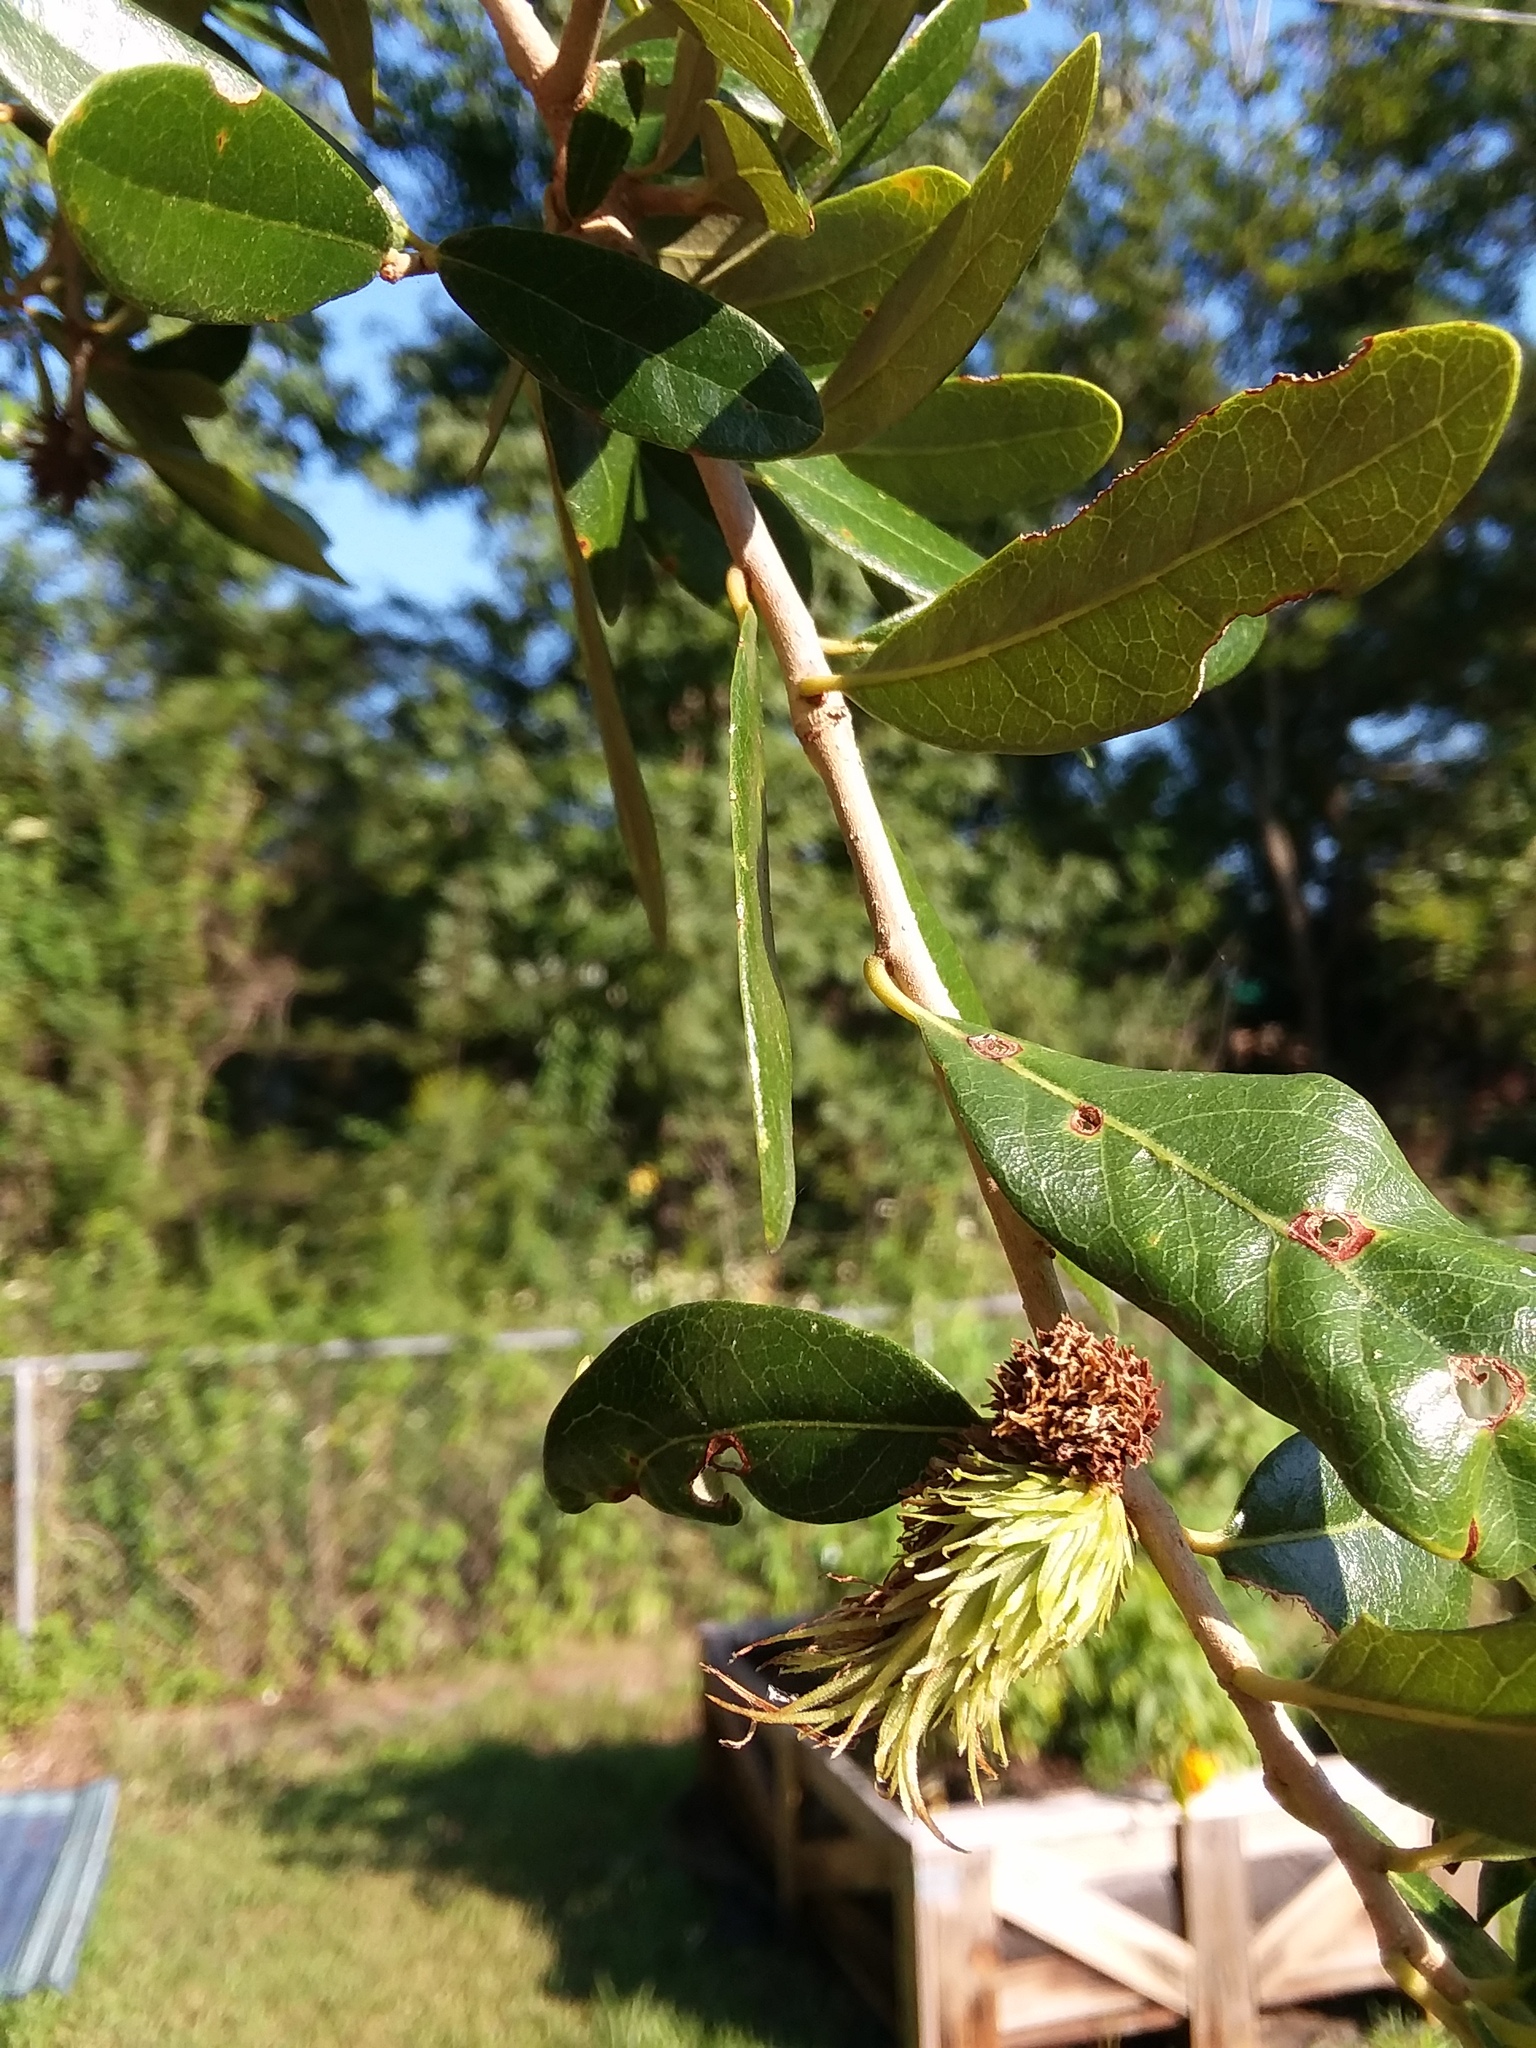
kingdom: Animalia
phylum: Arthropoda
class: Insecta
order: Hymenoptera
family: Cynipidae
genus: Andricus
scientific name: Andricus quercusfoliatus
